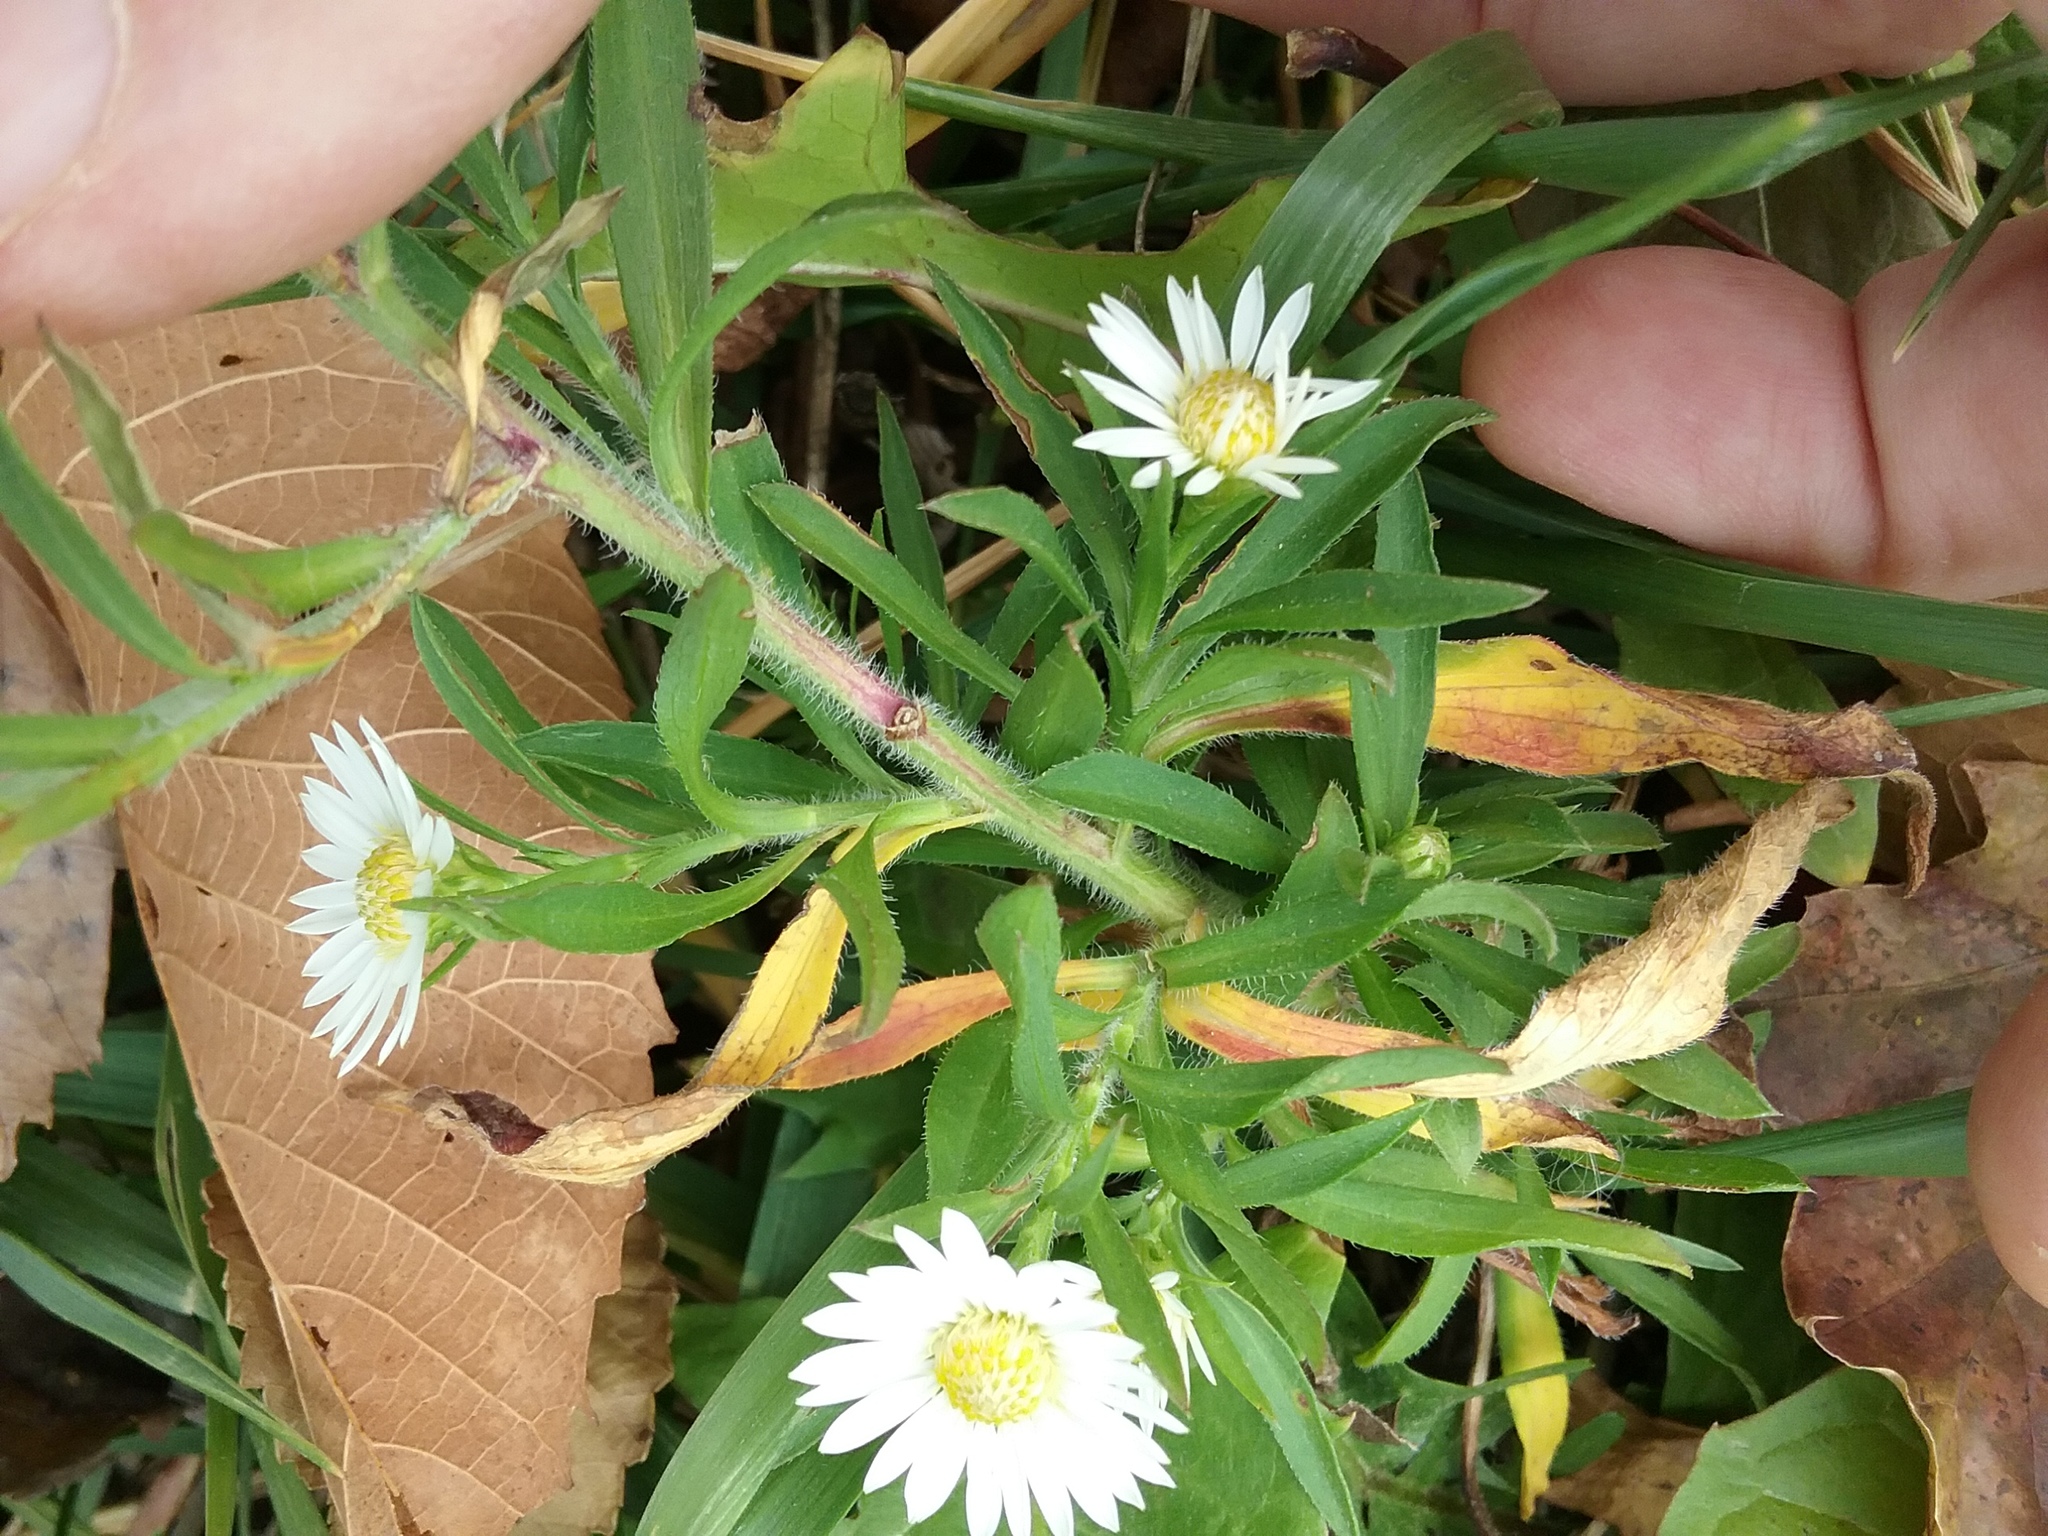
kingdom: Plantae
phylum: Tracheophyta
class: Magnoliopsida
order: Asterales
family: Asteraceae
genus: Symphyotrichum
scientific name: Symphyotrichum pilosum
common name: Awl aster
